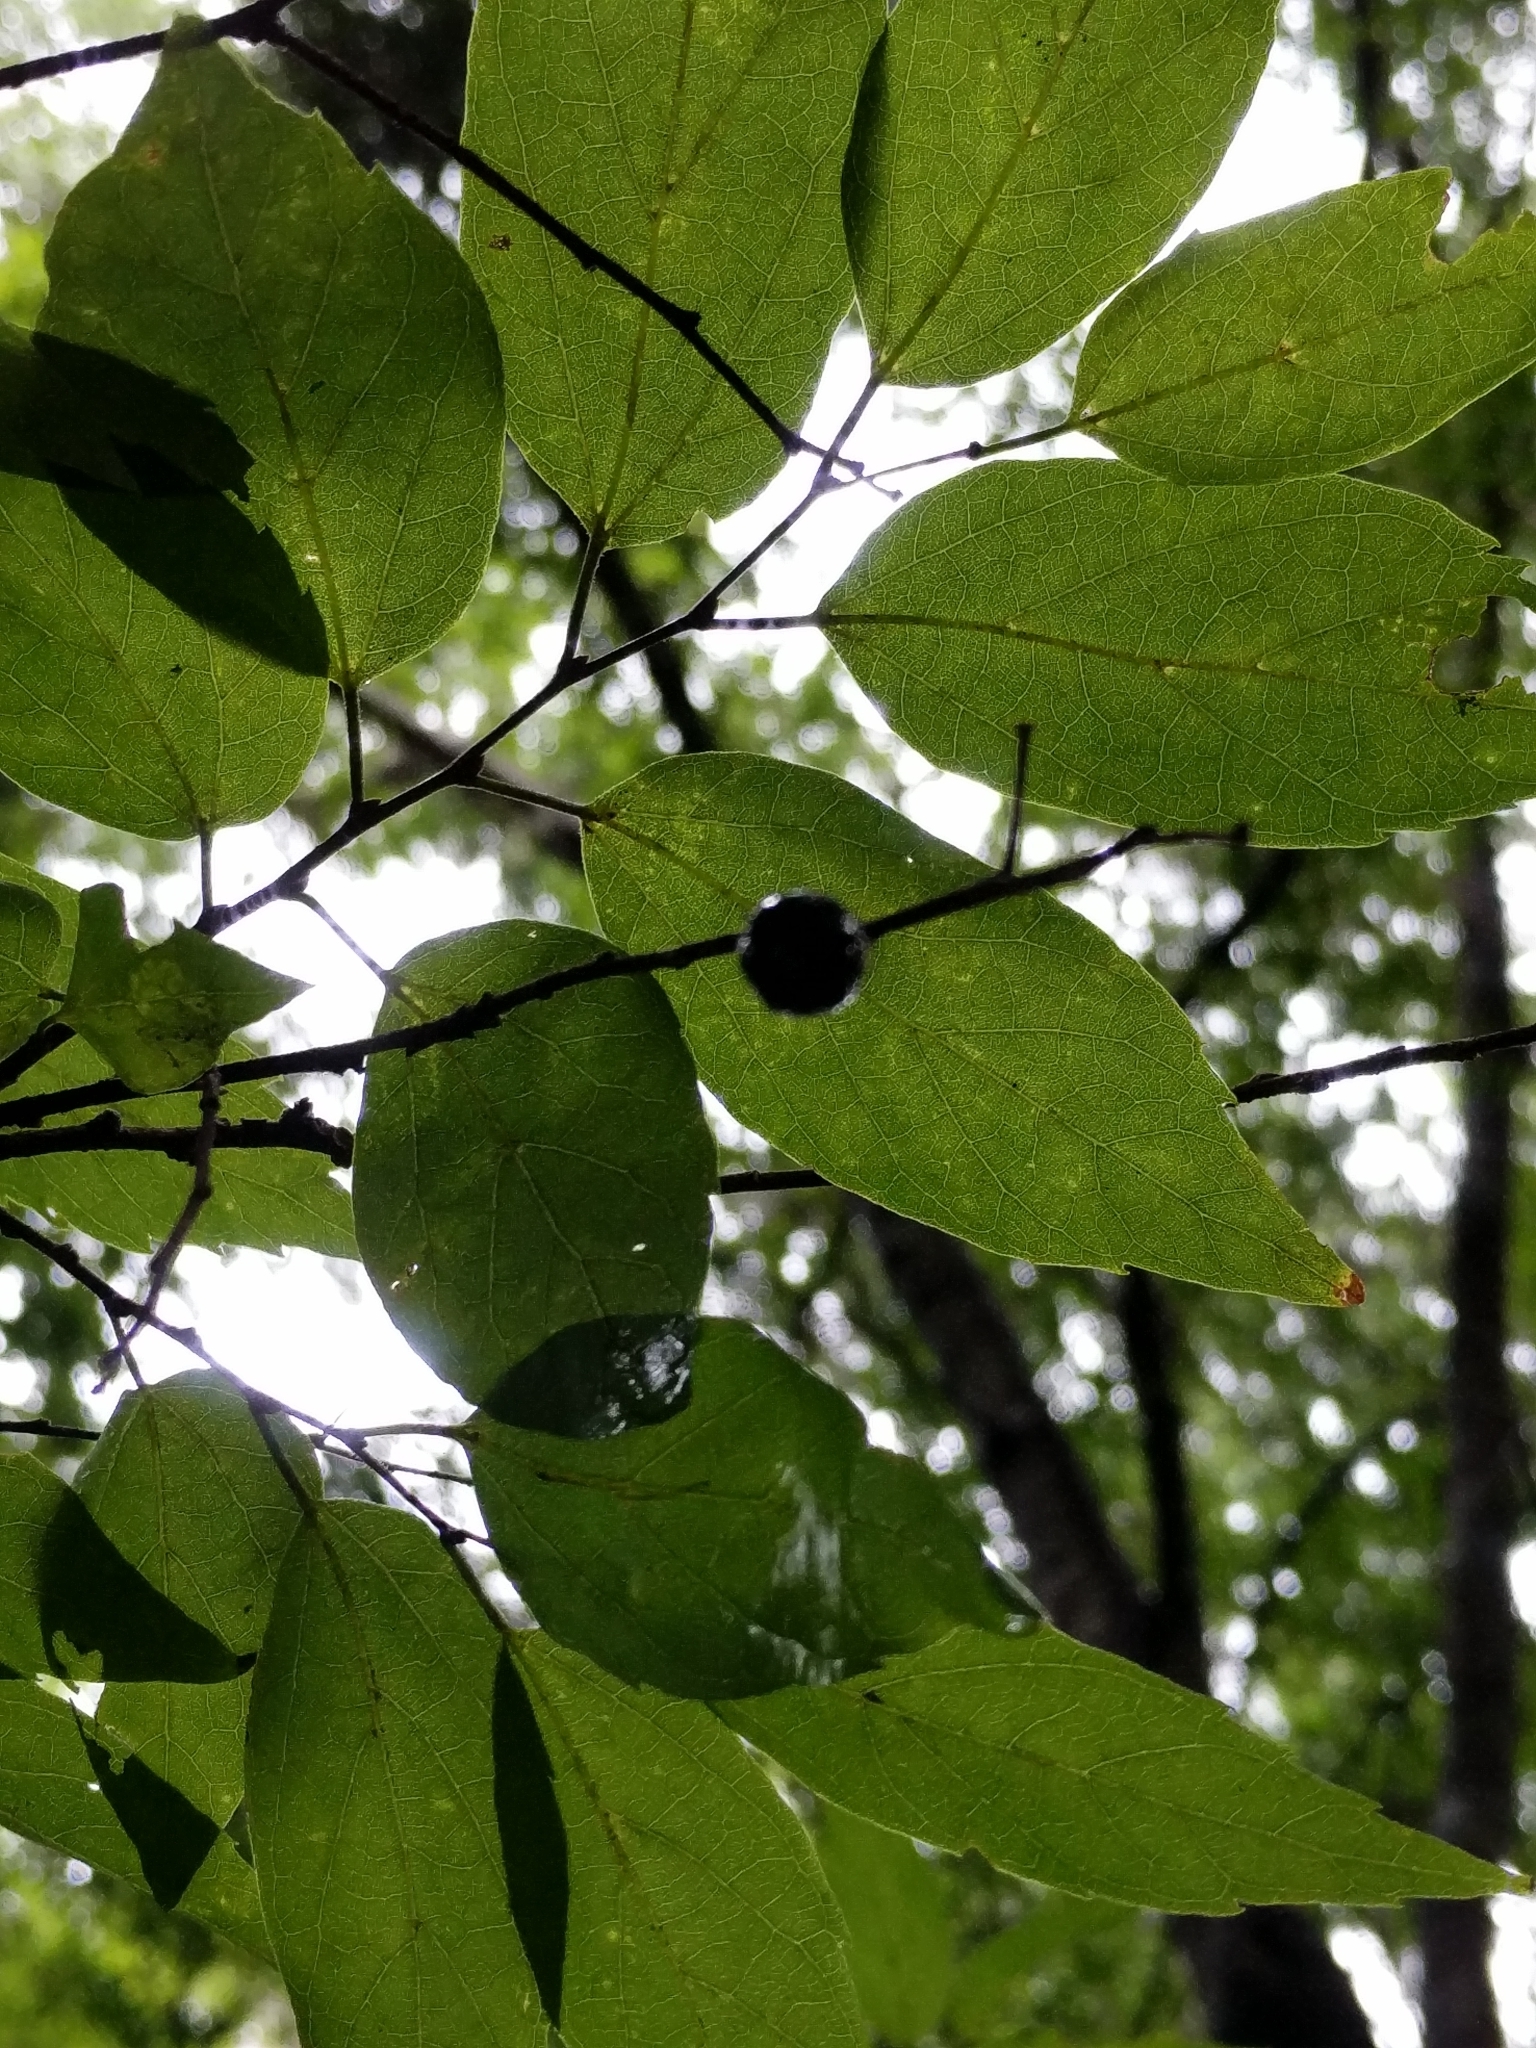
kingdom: Plantae
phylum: Tracheophyta
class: Magnoliopsida
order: Rosales
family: Cannabaceae
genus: Celtis
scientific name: Celtis laevigata
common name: Sugarberry
